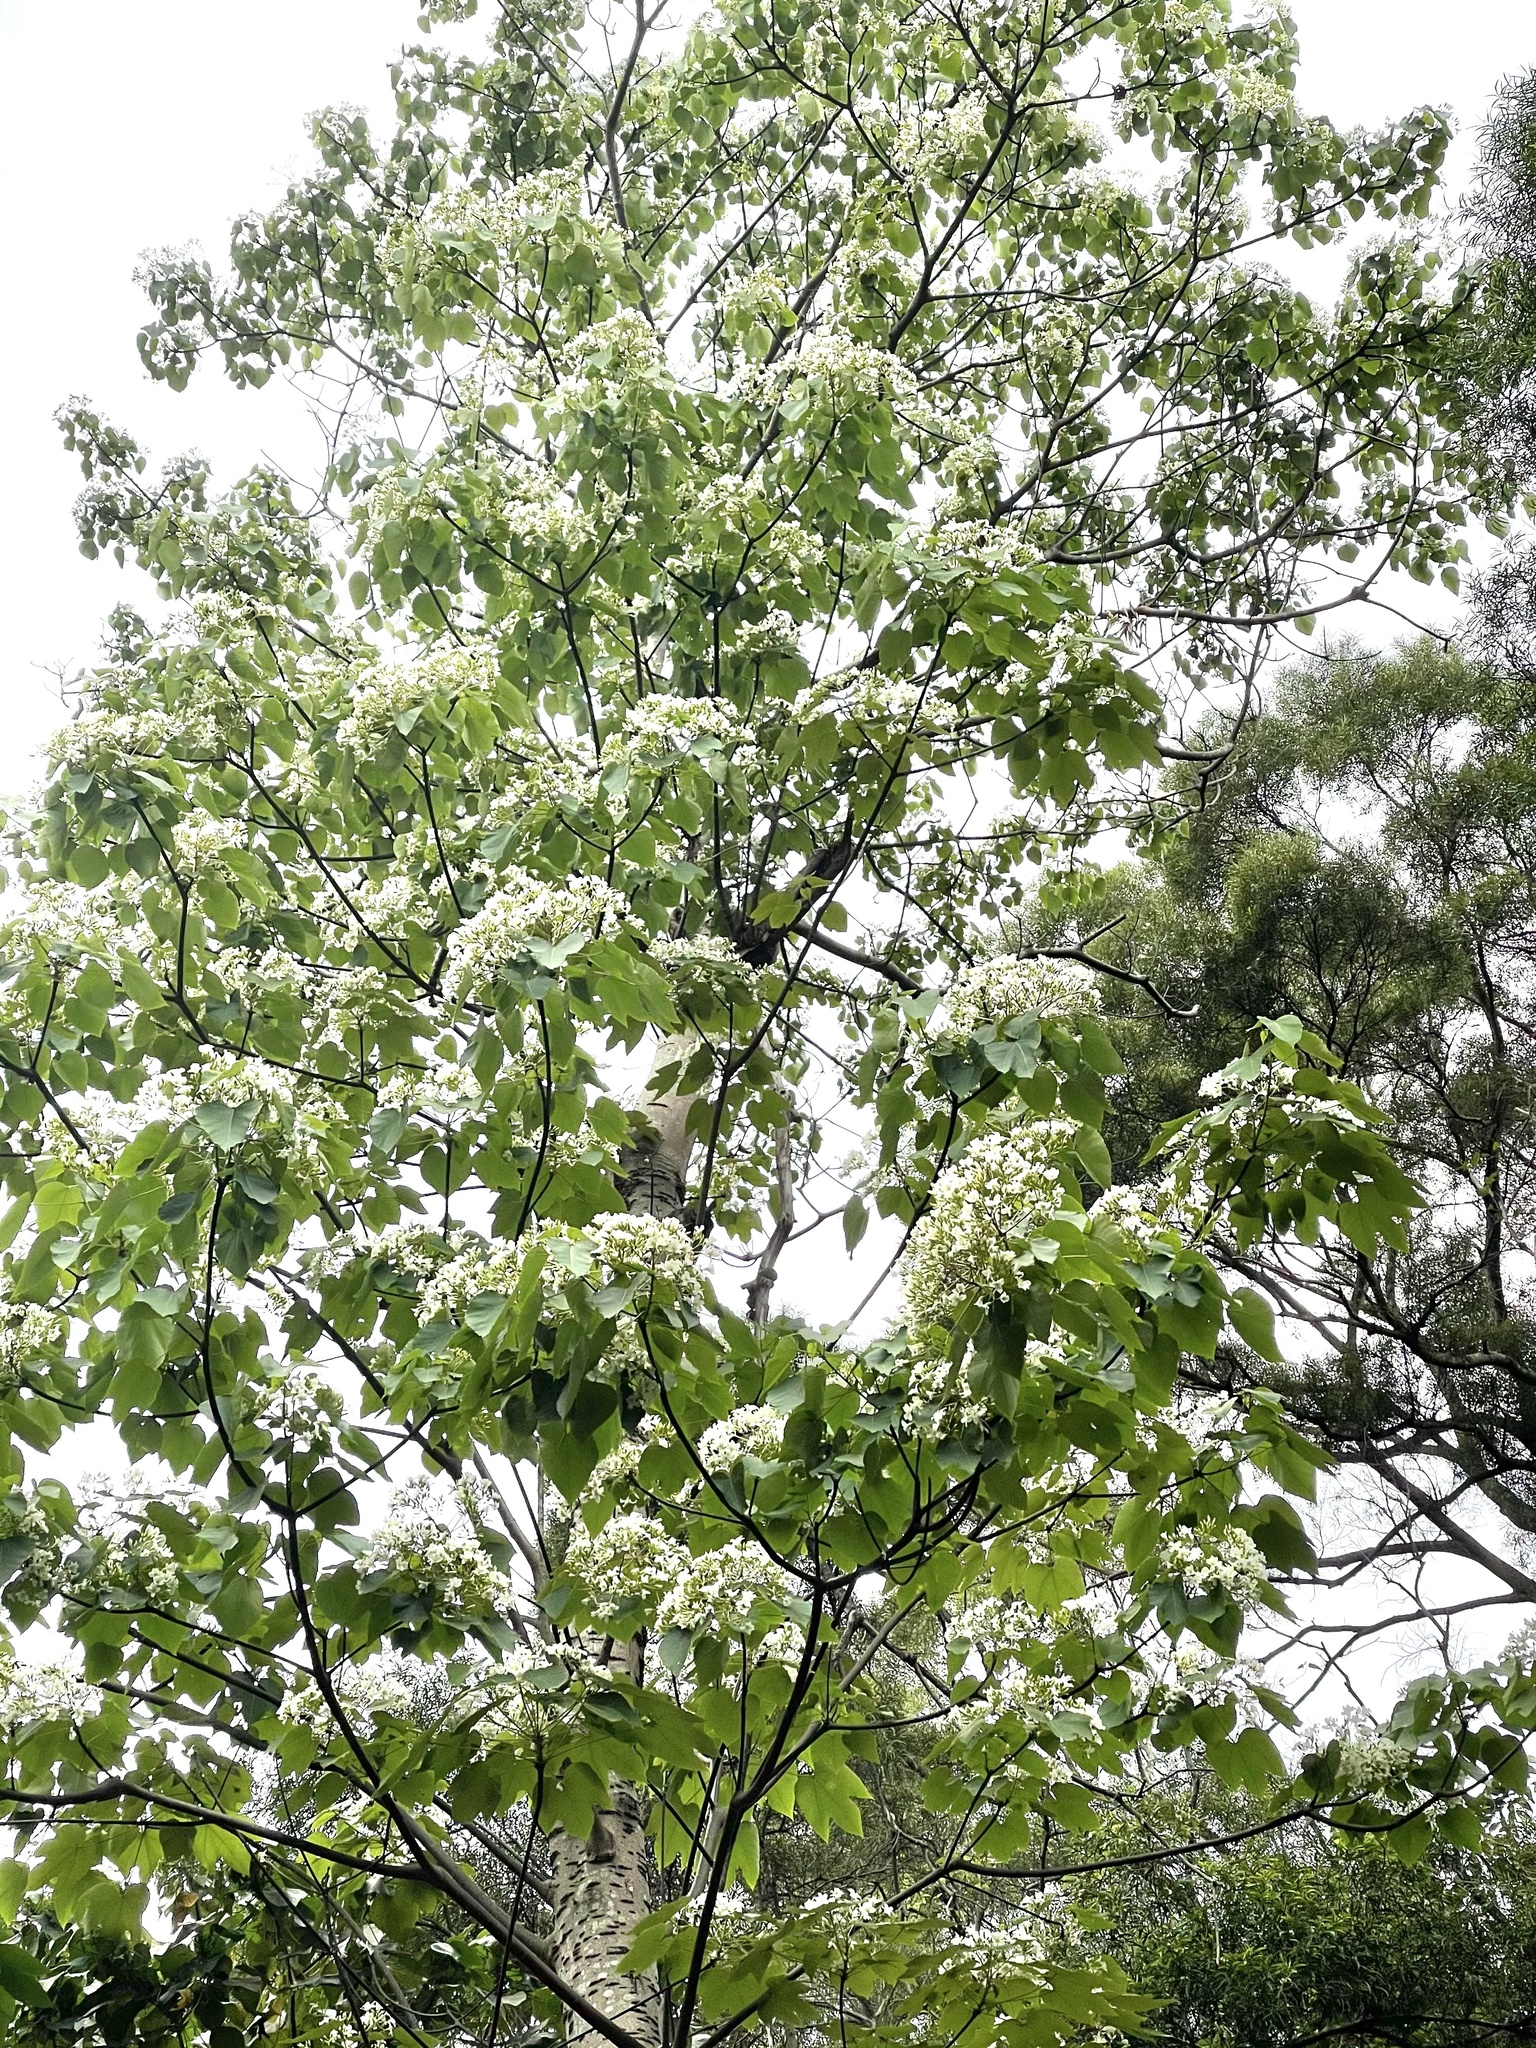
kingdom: Plantae
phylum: Tracheophyta
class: Magnoliopsida
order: Malpighiales
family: Euphorbiaceae
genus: Vernicia
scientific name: Vernicia montana
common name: Mu oil tree
